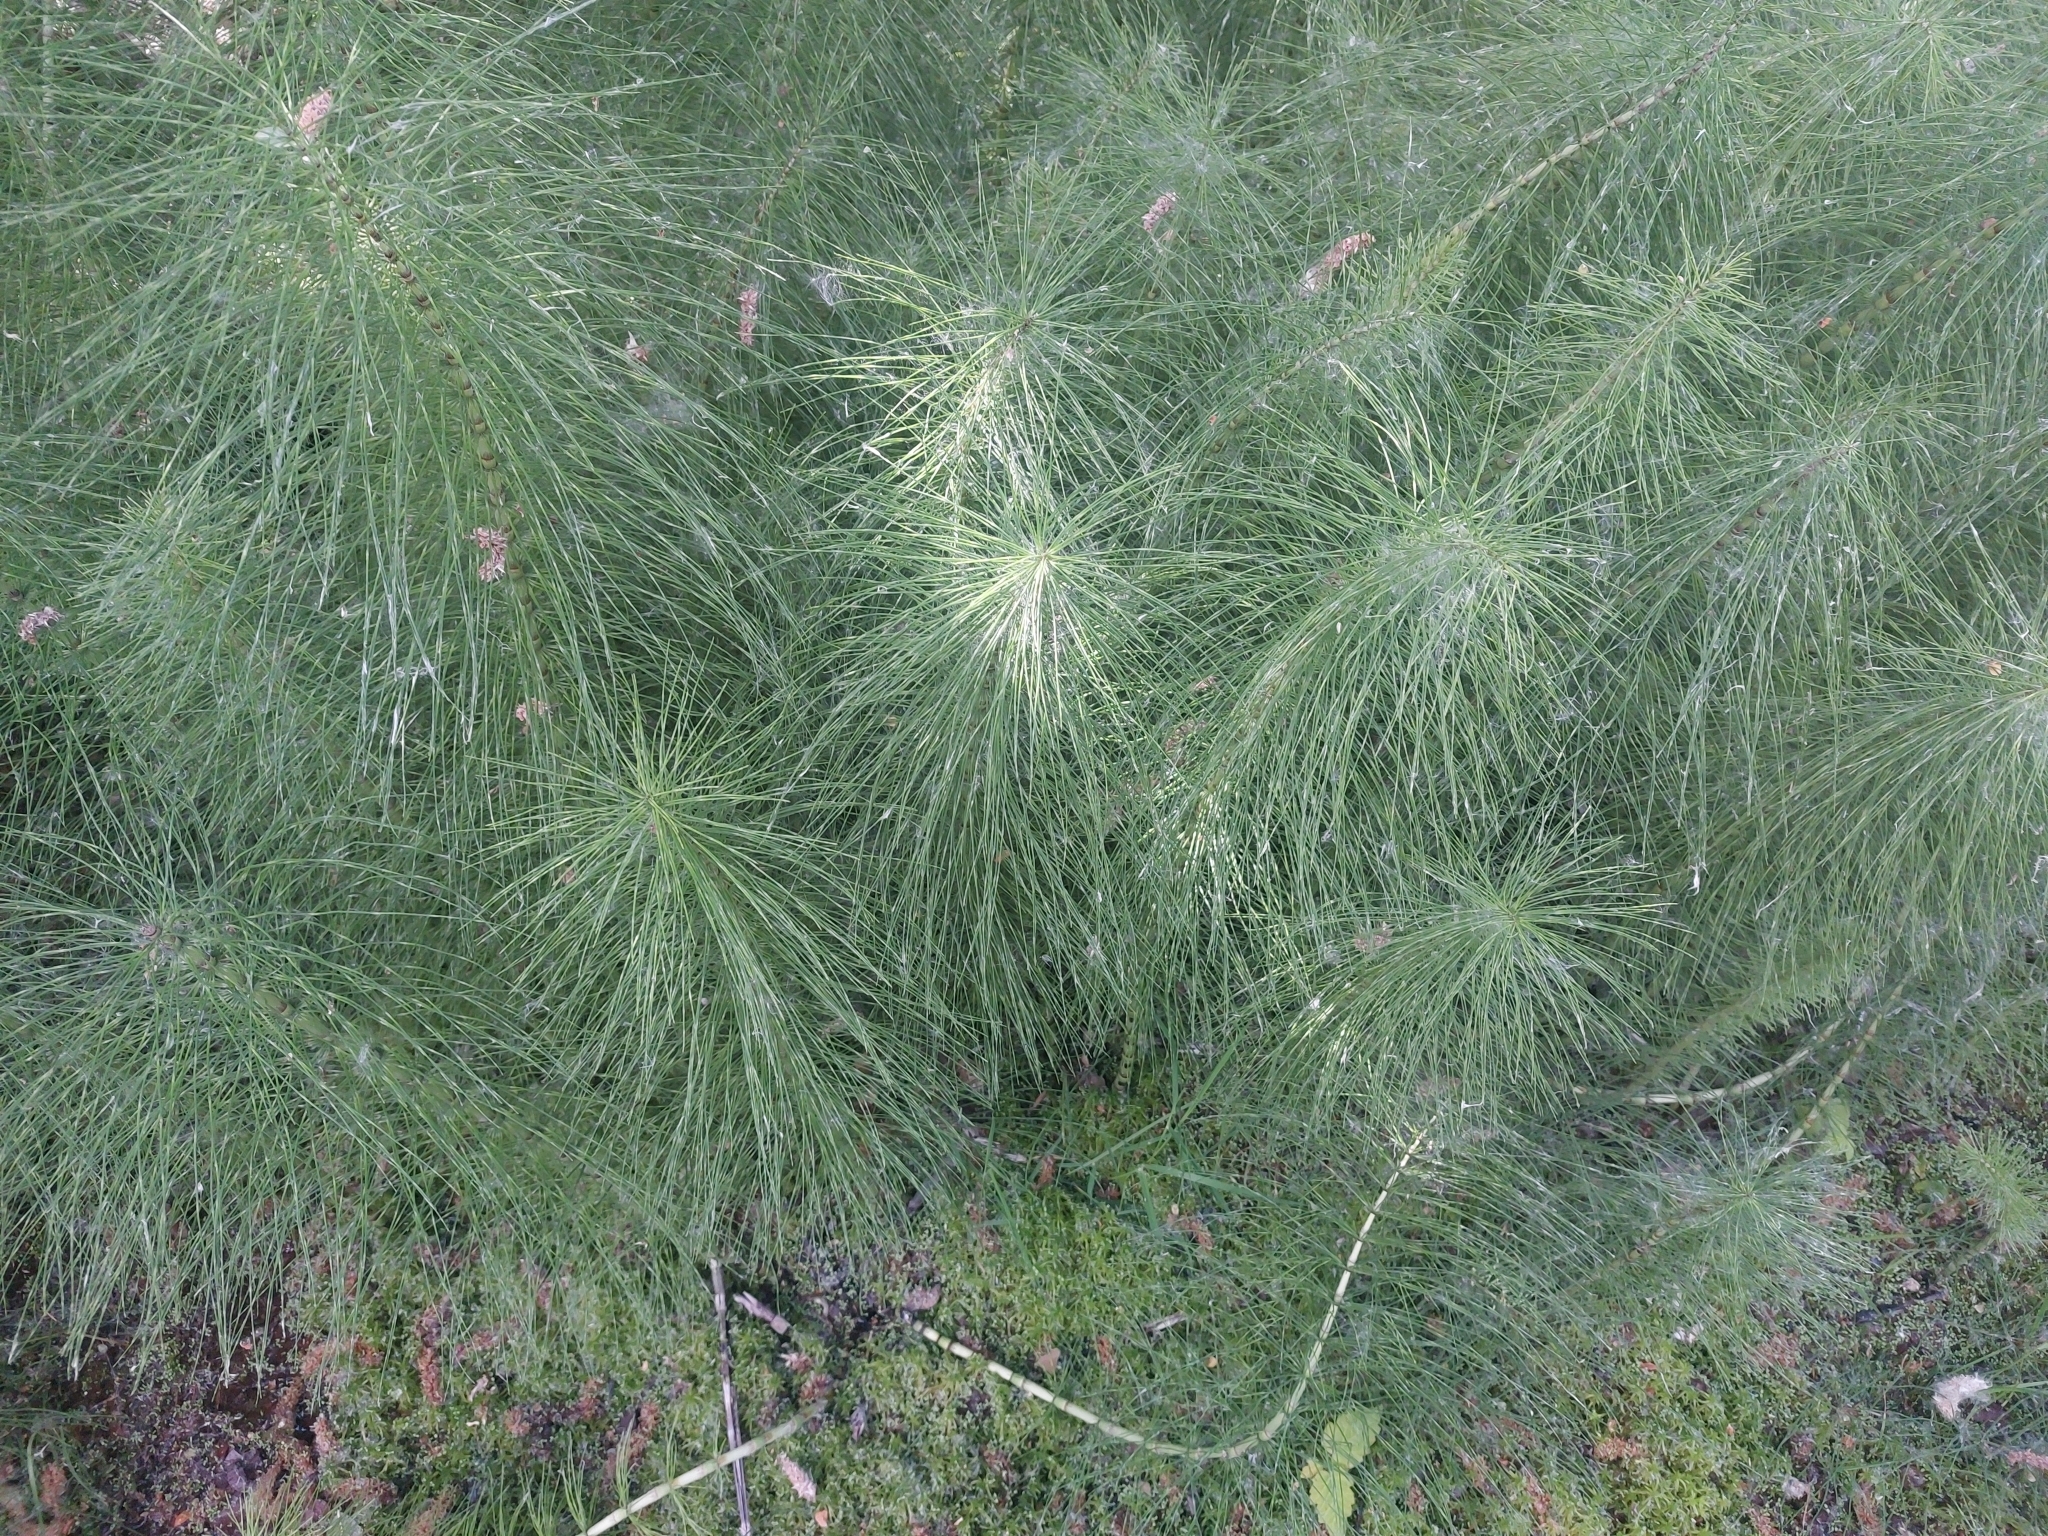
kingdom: Plantae
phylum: Tracheophyta
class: Polypodiopsida
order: Equisetales
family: Equisetaceae
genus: Equisetum
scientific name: Equisetum telmateia
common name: Great horsetail
